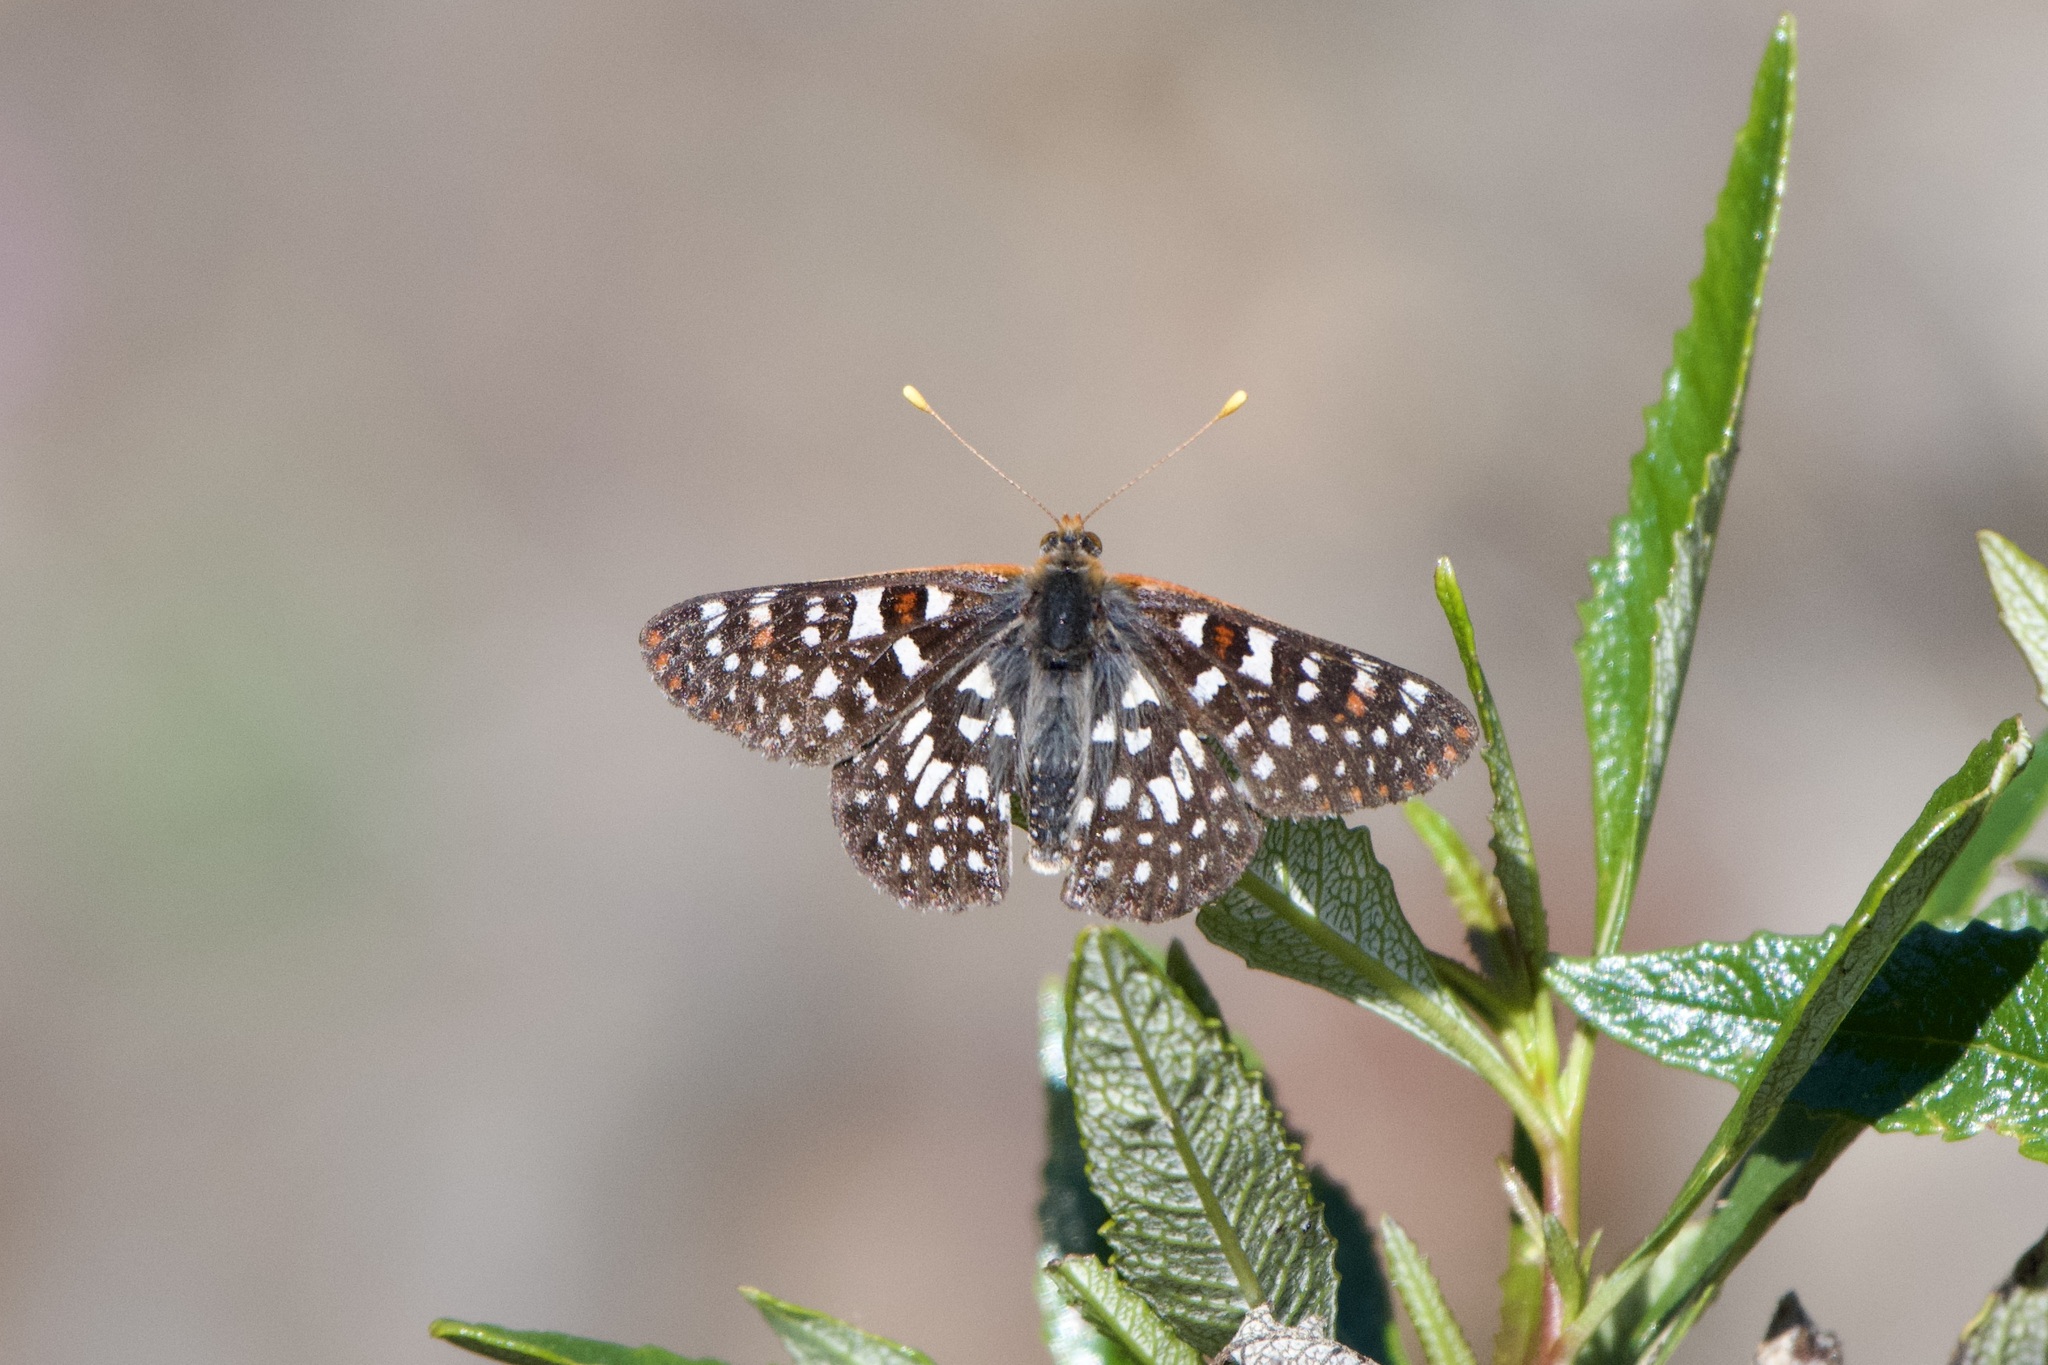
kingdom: Animalia
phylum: Arthropoda
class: Insecta
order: Lepidoptera
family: Nymphalidae
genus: Occidryas
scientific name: Occidryas chalcedona
